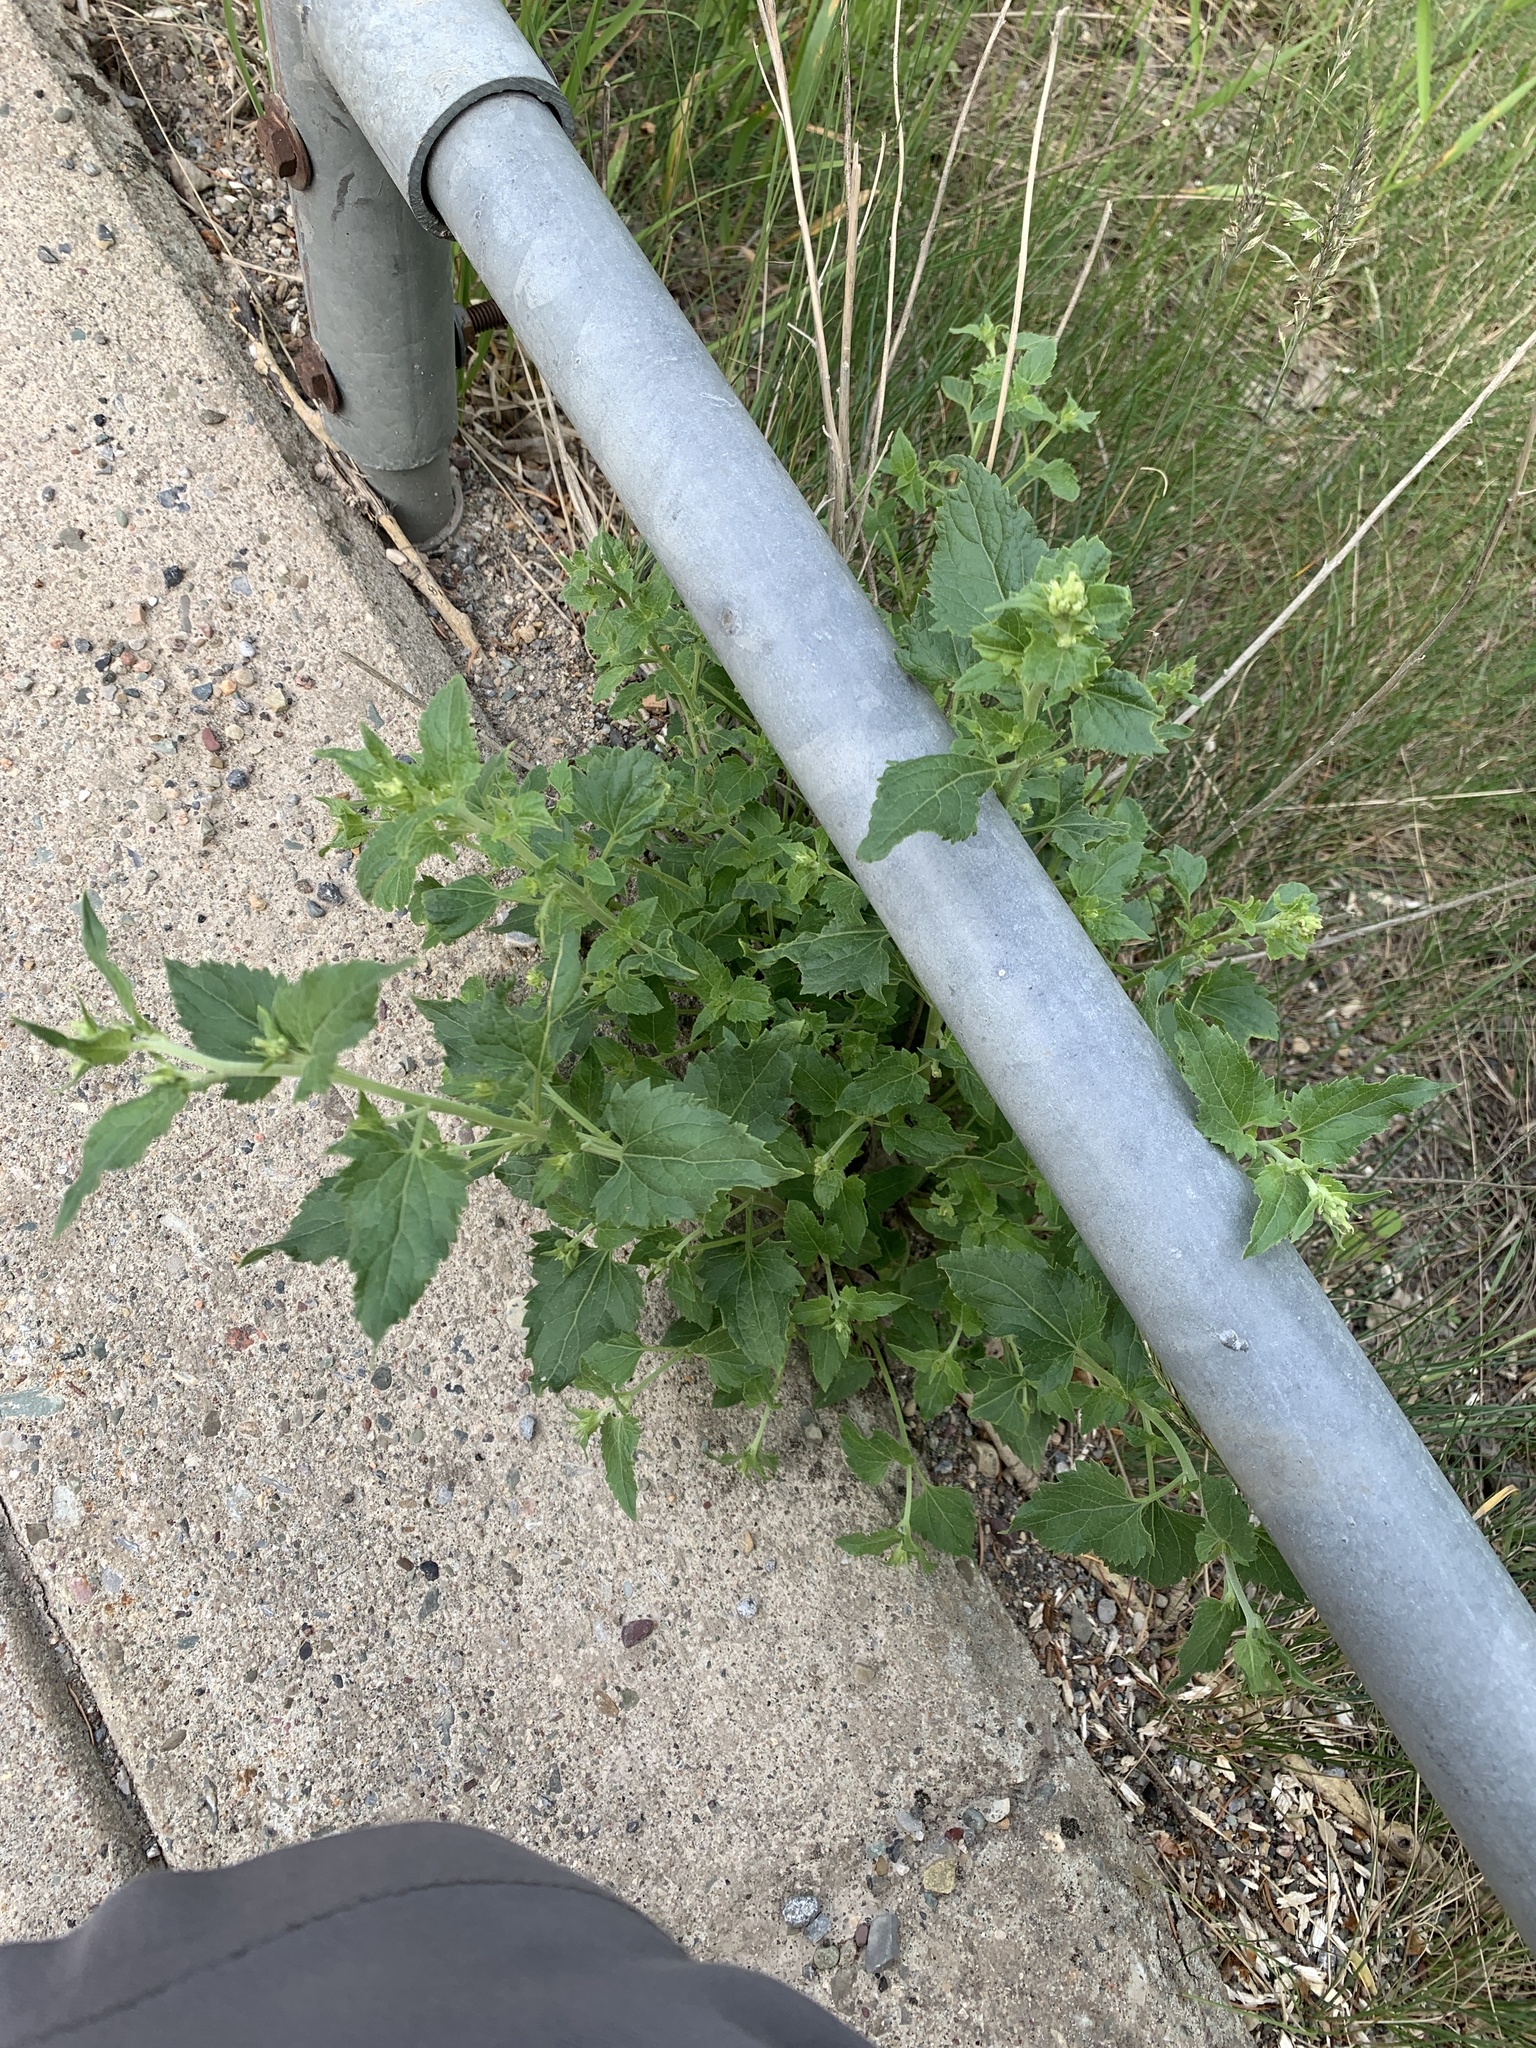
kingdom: Plantae
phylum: Tracheophyta
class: Magnoliopsida
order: Asterales
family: Asteraceae
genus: Brickellia
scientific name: Brickellia grandiflora
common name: Large-flowered brickellia
